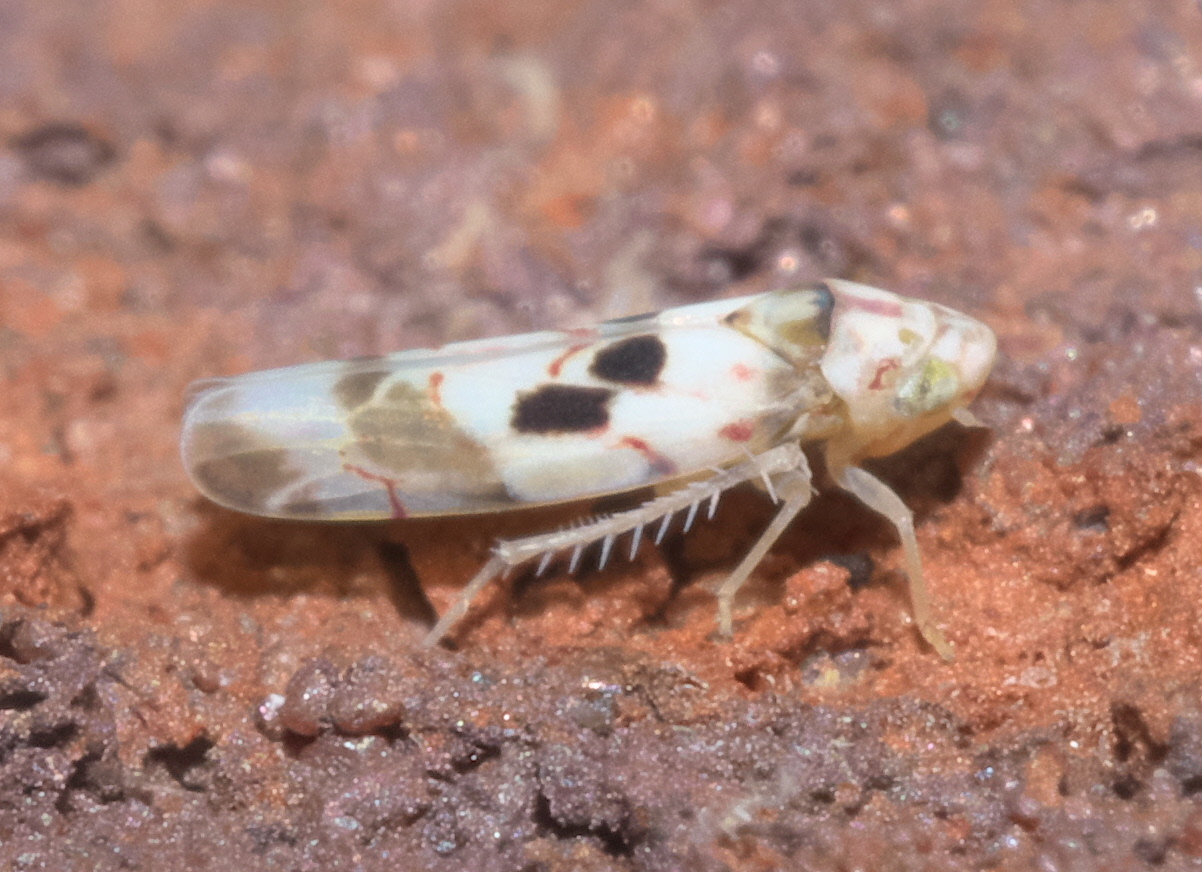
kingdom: Animalia
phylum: Arthropoda
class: Insecta
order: Hemiptera
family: Cicadellidae
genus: Eratoneura
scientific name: Eratoneura hymettana
